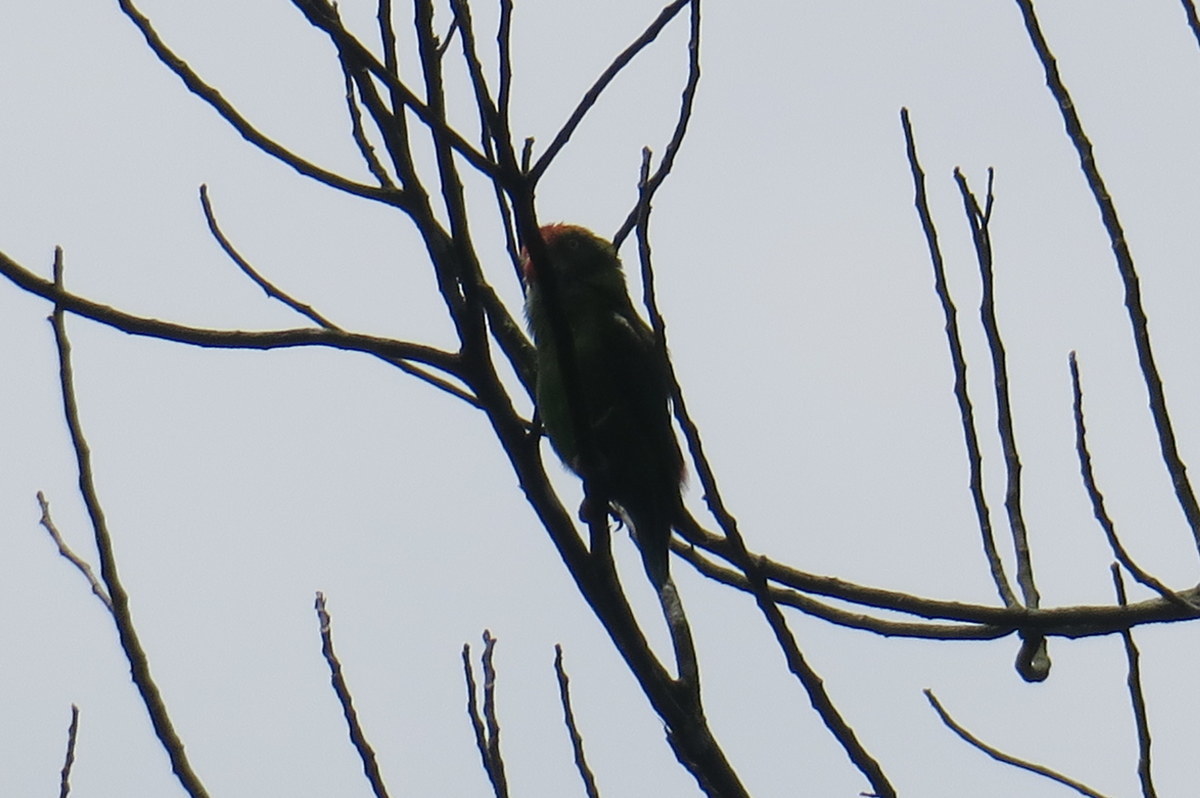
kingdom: Animalia
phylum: Chordata
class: Aves
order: Psittaciformes
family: Psittacidae
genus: Loriculus
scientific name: Loriculus beryllinus
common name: Sri lanka hanging parrot
